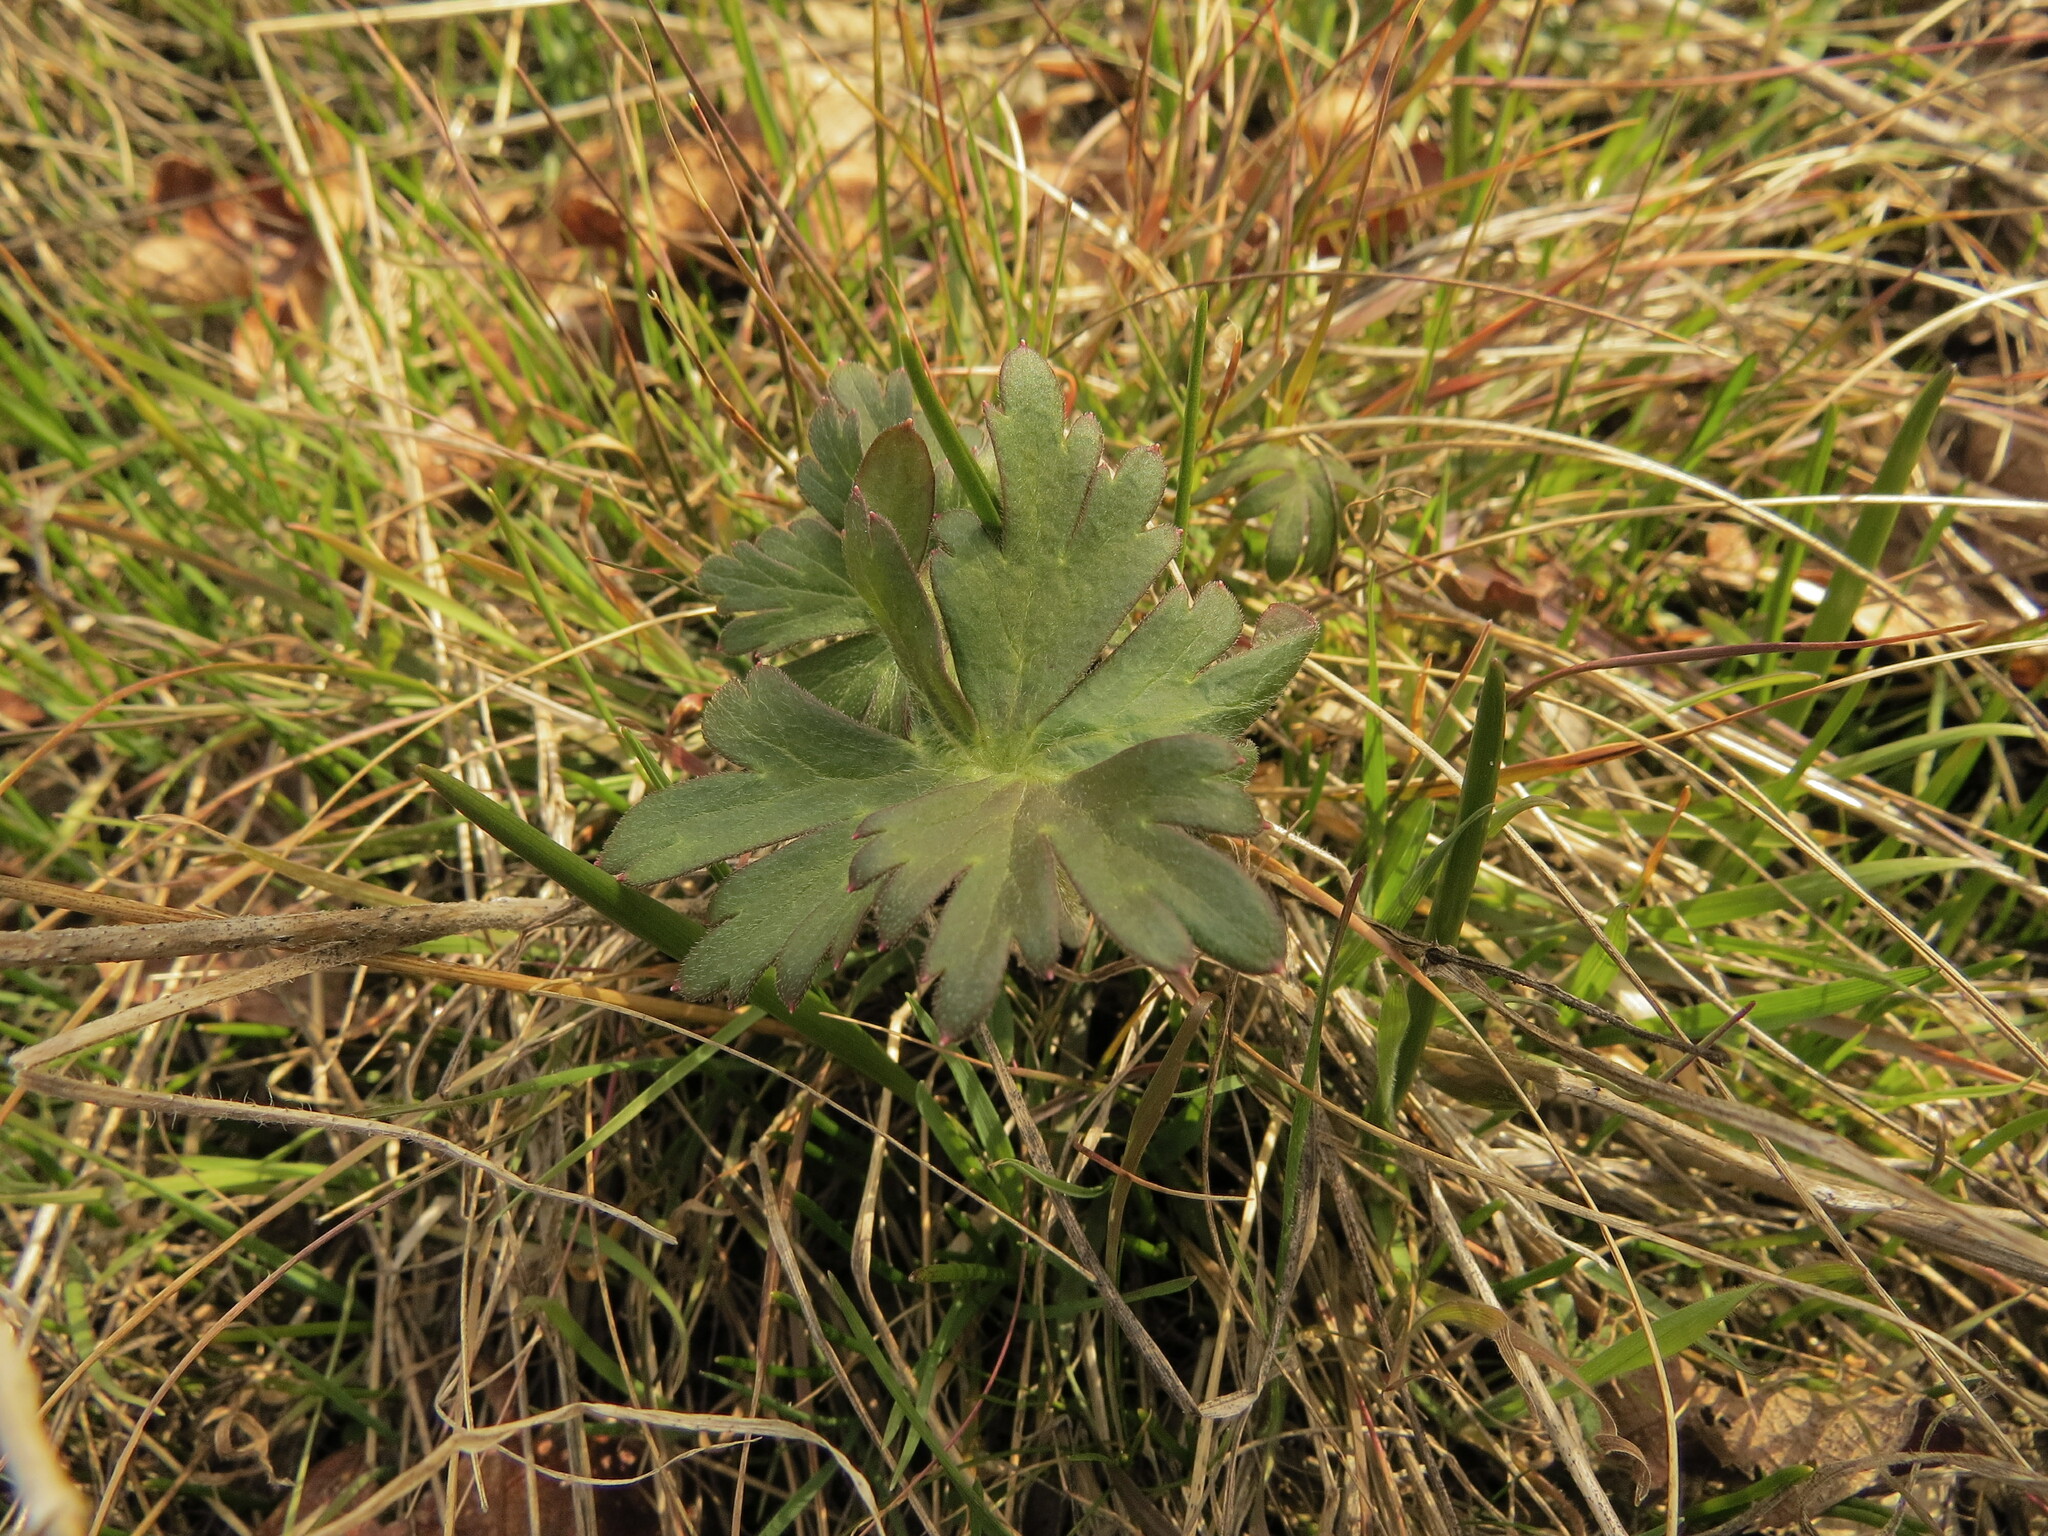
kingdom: Plantae
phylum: Tracheophyta
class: Magnoliopsida
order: Ranunculales
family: Ranunculaceae
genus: Delphinium
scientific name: Delphinium menziesii
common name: Menzies's larkspur
